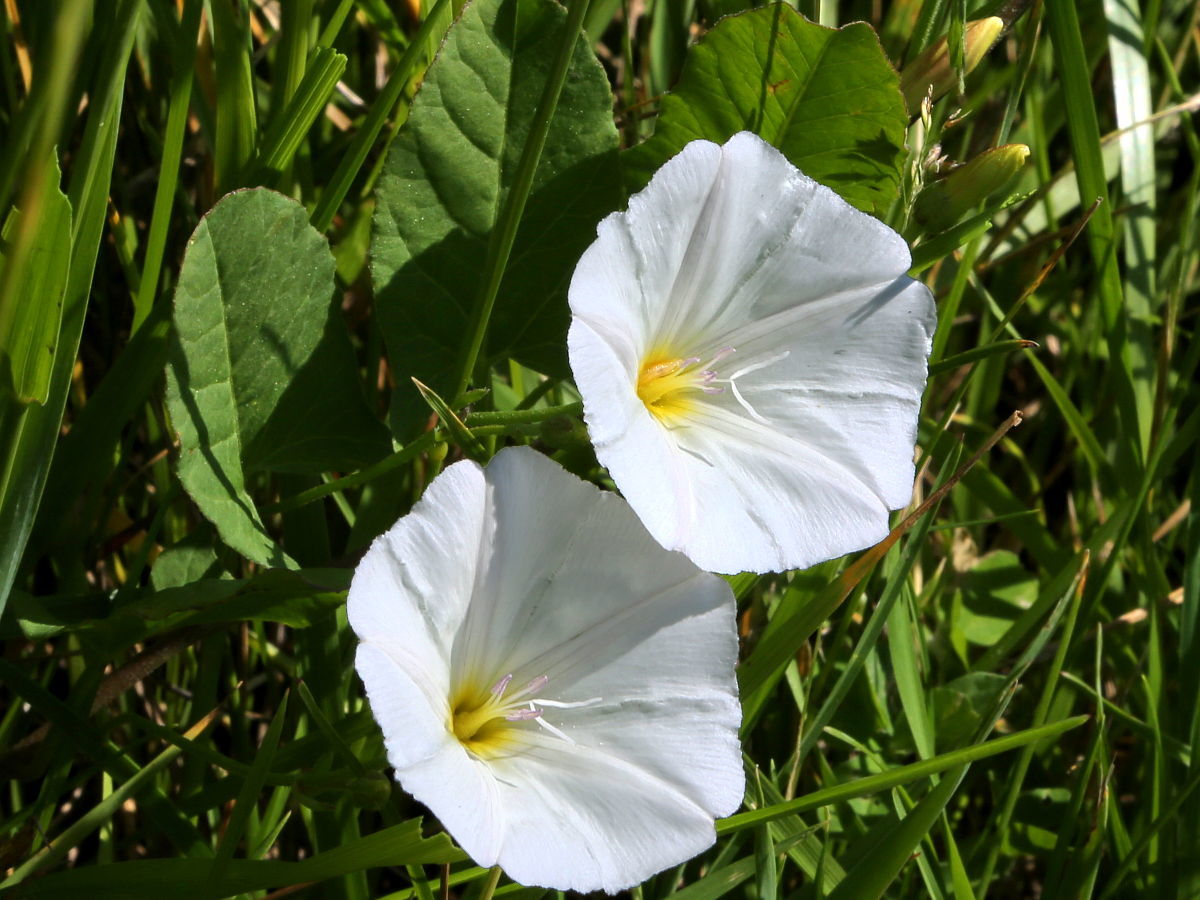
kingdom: Plantae
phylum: Tracheophyta
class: Magnoliopsida
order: Solanales
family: Convolvulaceae
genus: Convolvulus
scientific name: Convolvulus arvensis
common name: Field bindweed
